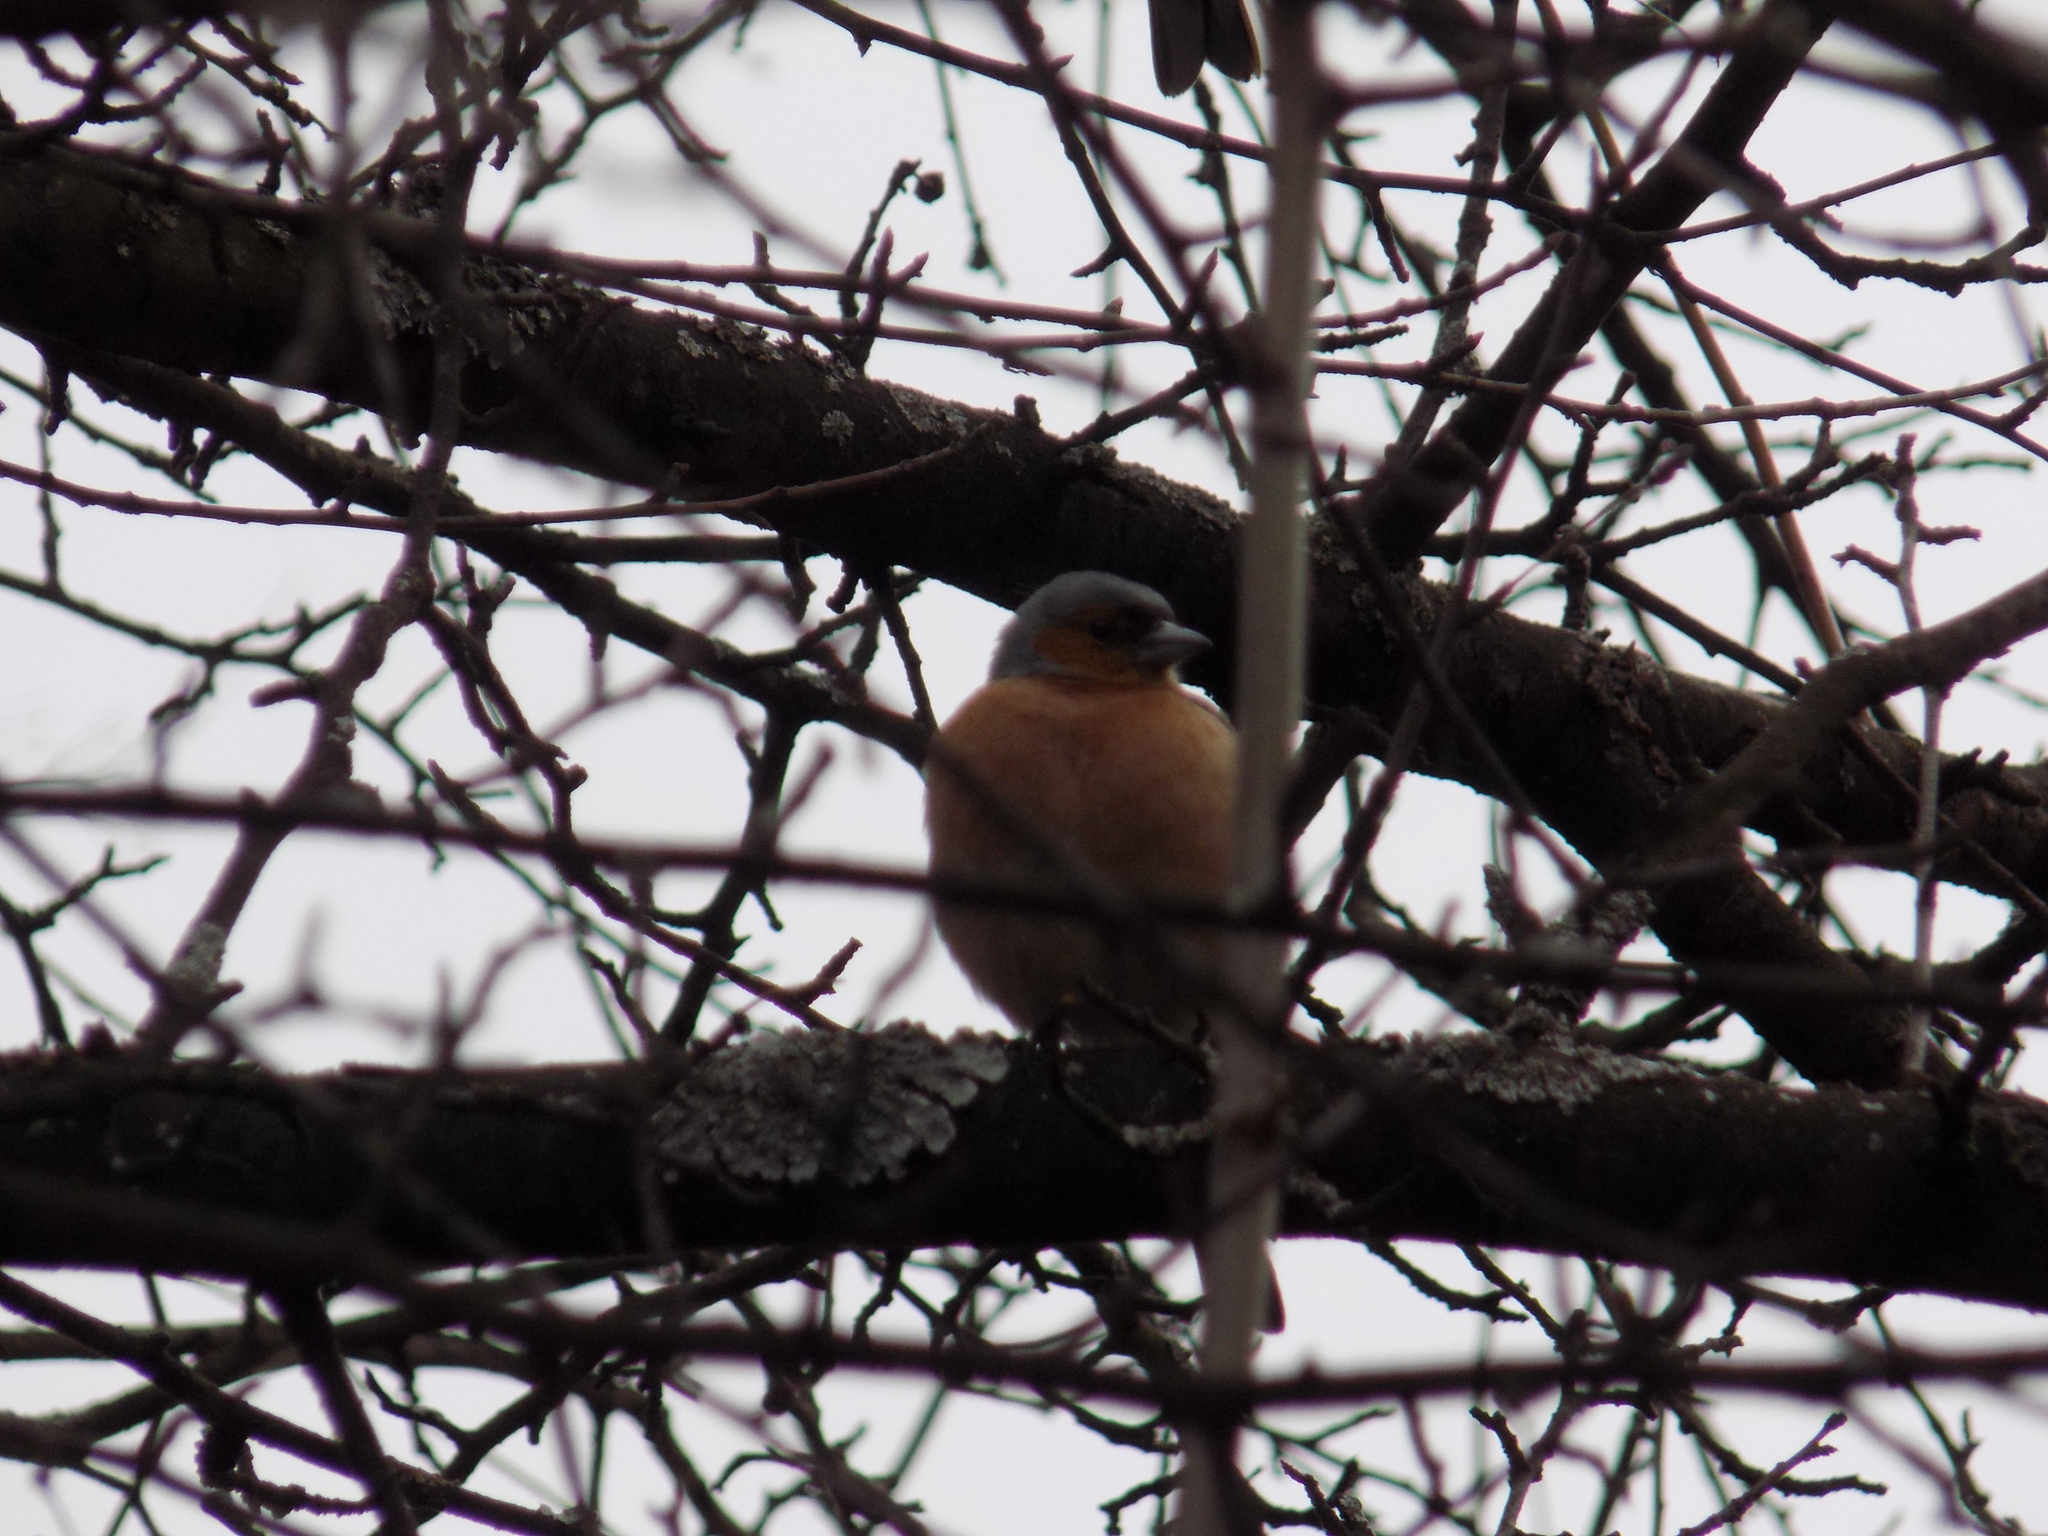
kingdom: Animalia
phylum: Chordata
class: Aves
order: Passeriformes
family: Fringillidae
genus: Fringilla
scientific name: Fringilla coelebs
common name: Common chaffinch
